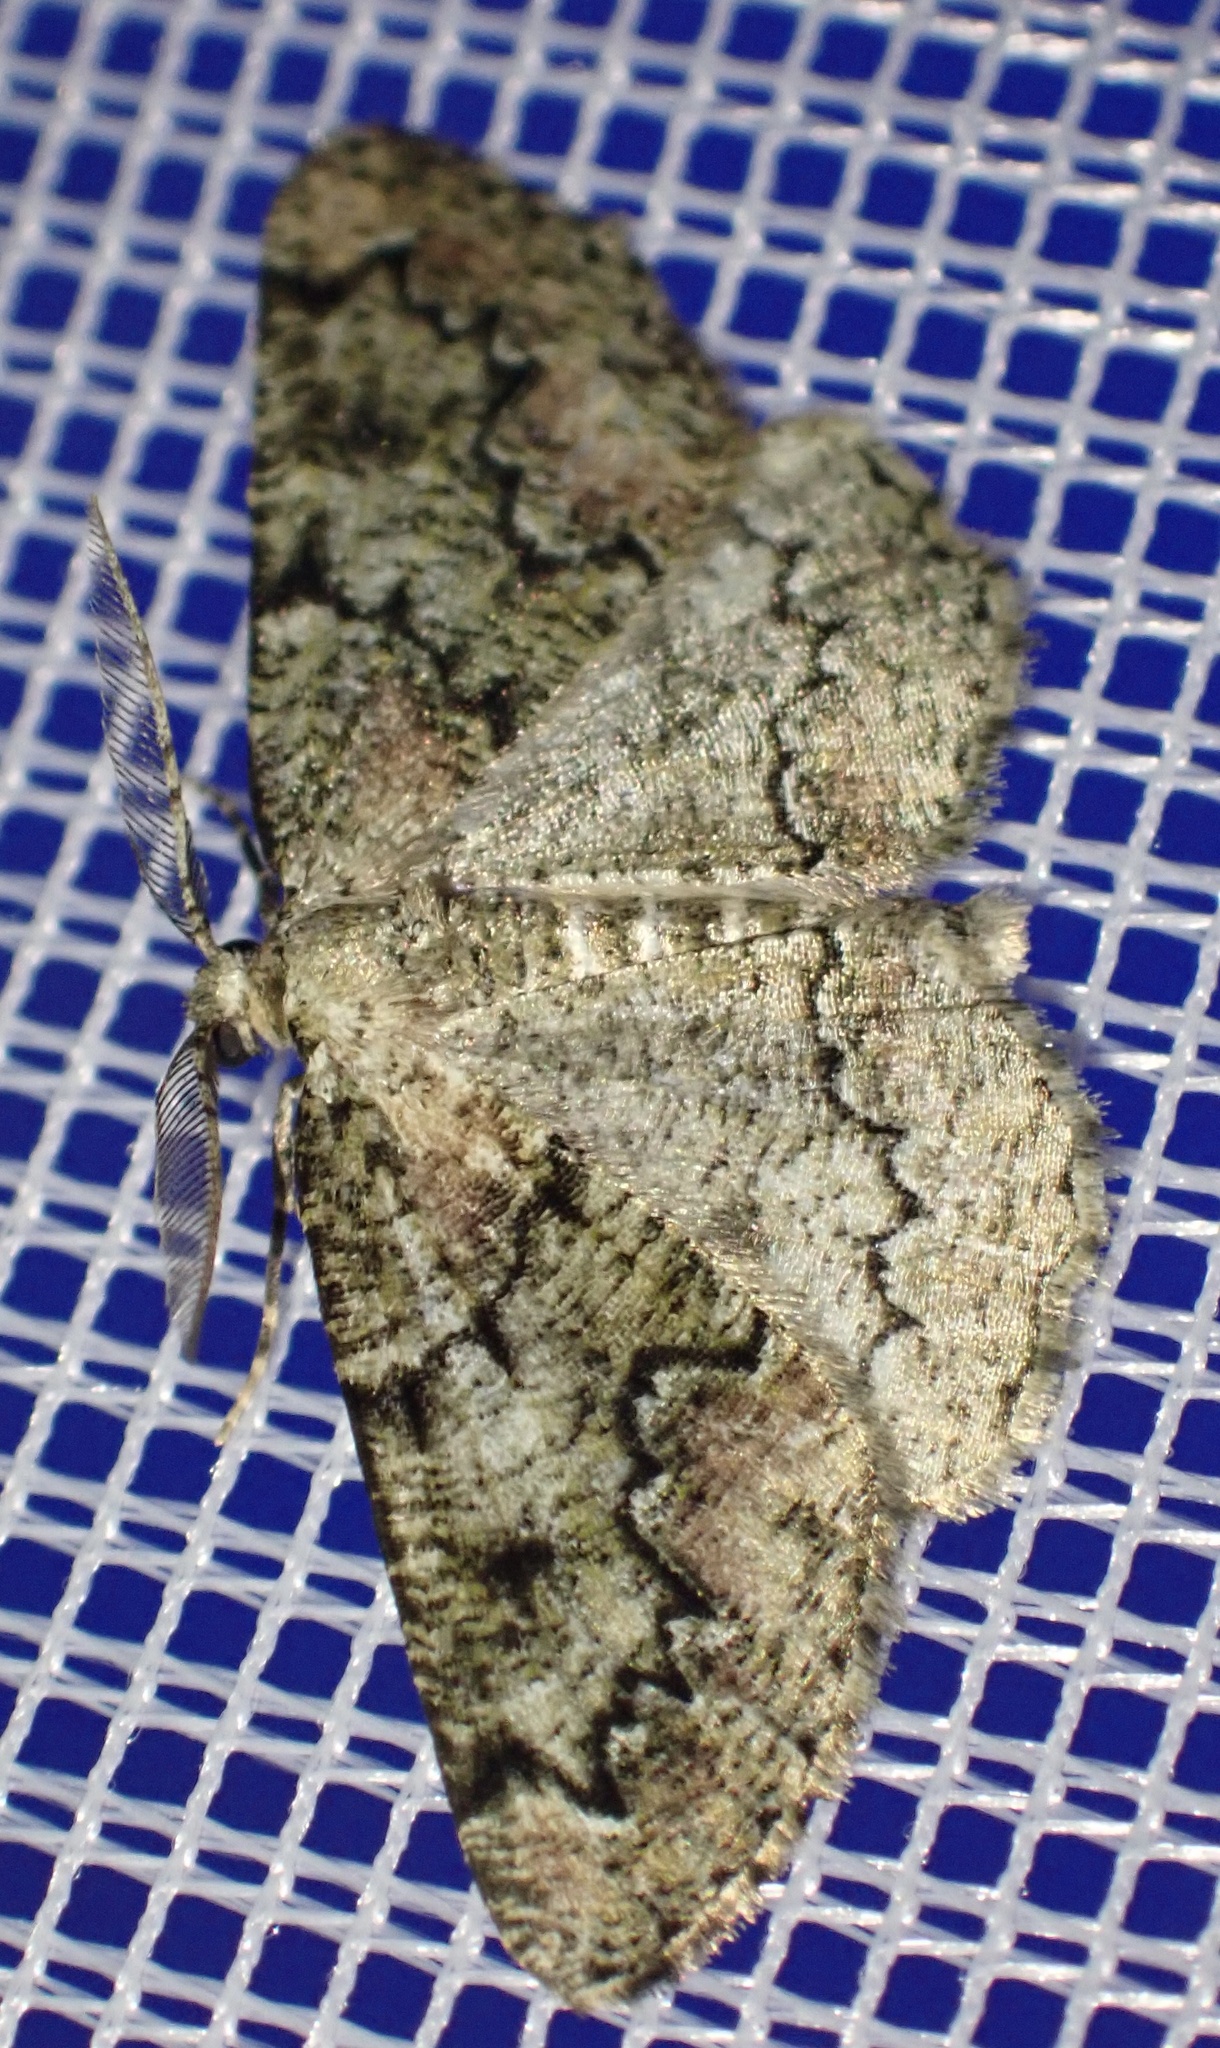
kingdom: Animalia
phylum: Arthropoda
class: Insecta
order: Lepidoptera
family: Geometridae
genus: Cleorodes
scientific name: Cleorodes lichenaria
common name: Brussels lace
